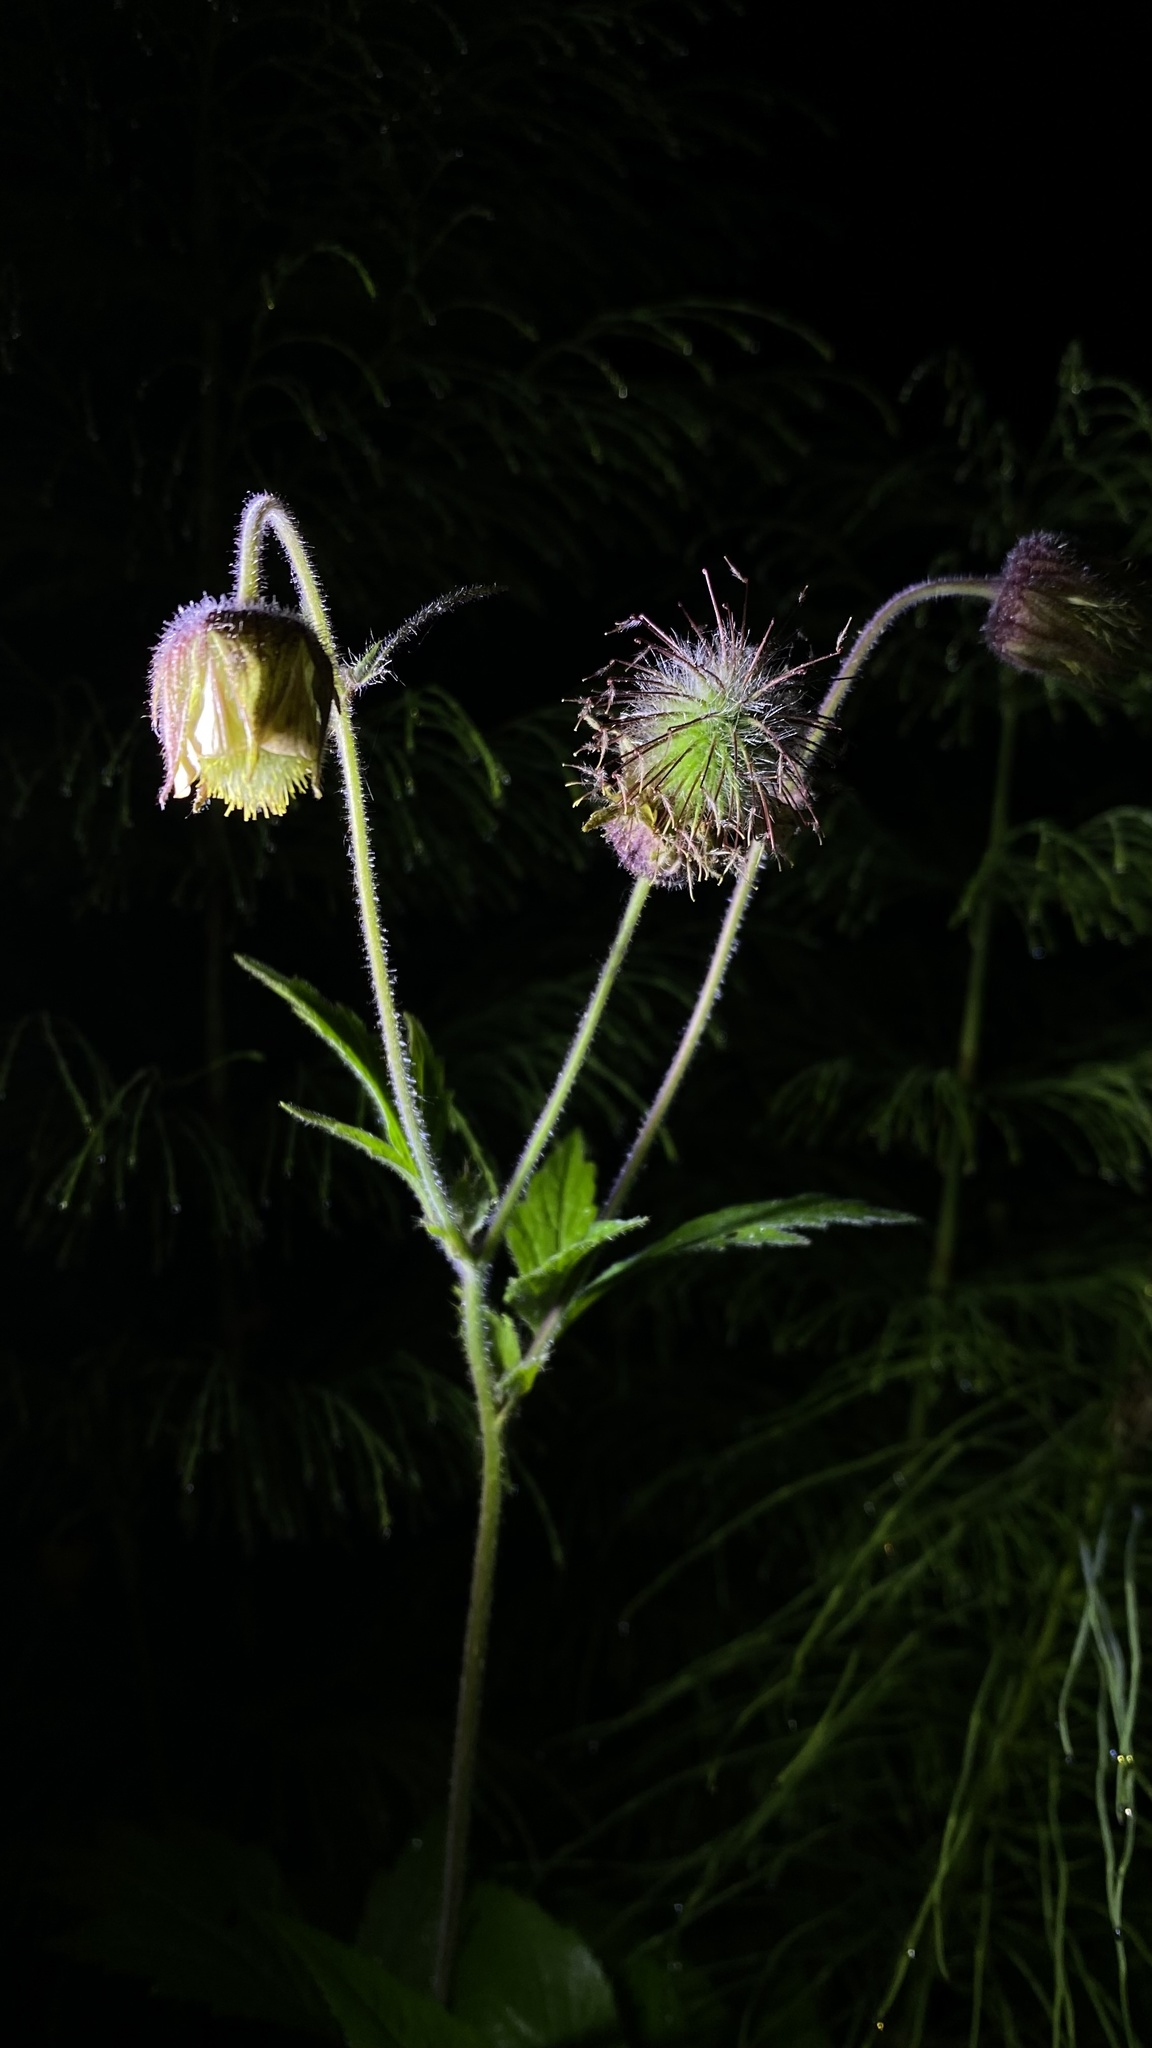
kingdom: Plantae
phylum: Tracheophyta
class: Magnoliopsida
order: Rosales
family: Rosaceae
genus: Geum
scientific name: Geum rivale
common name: Water avens
